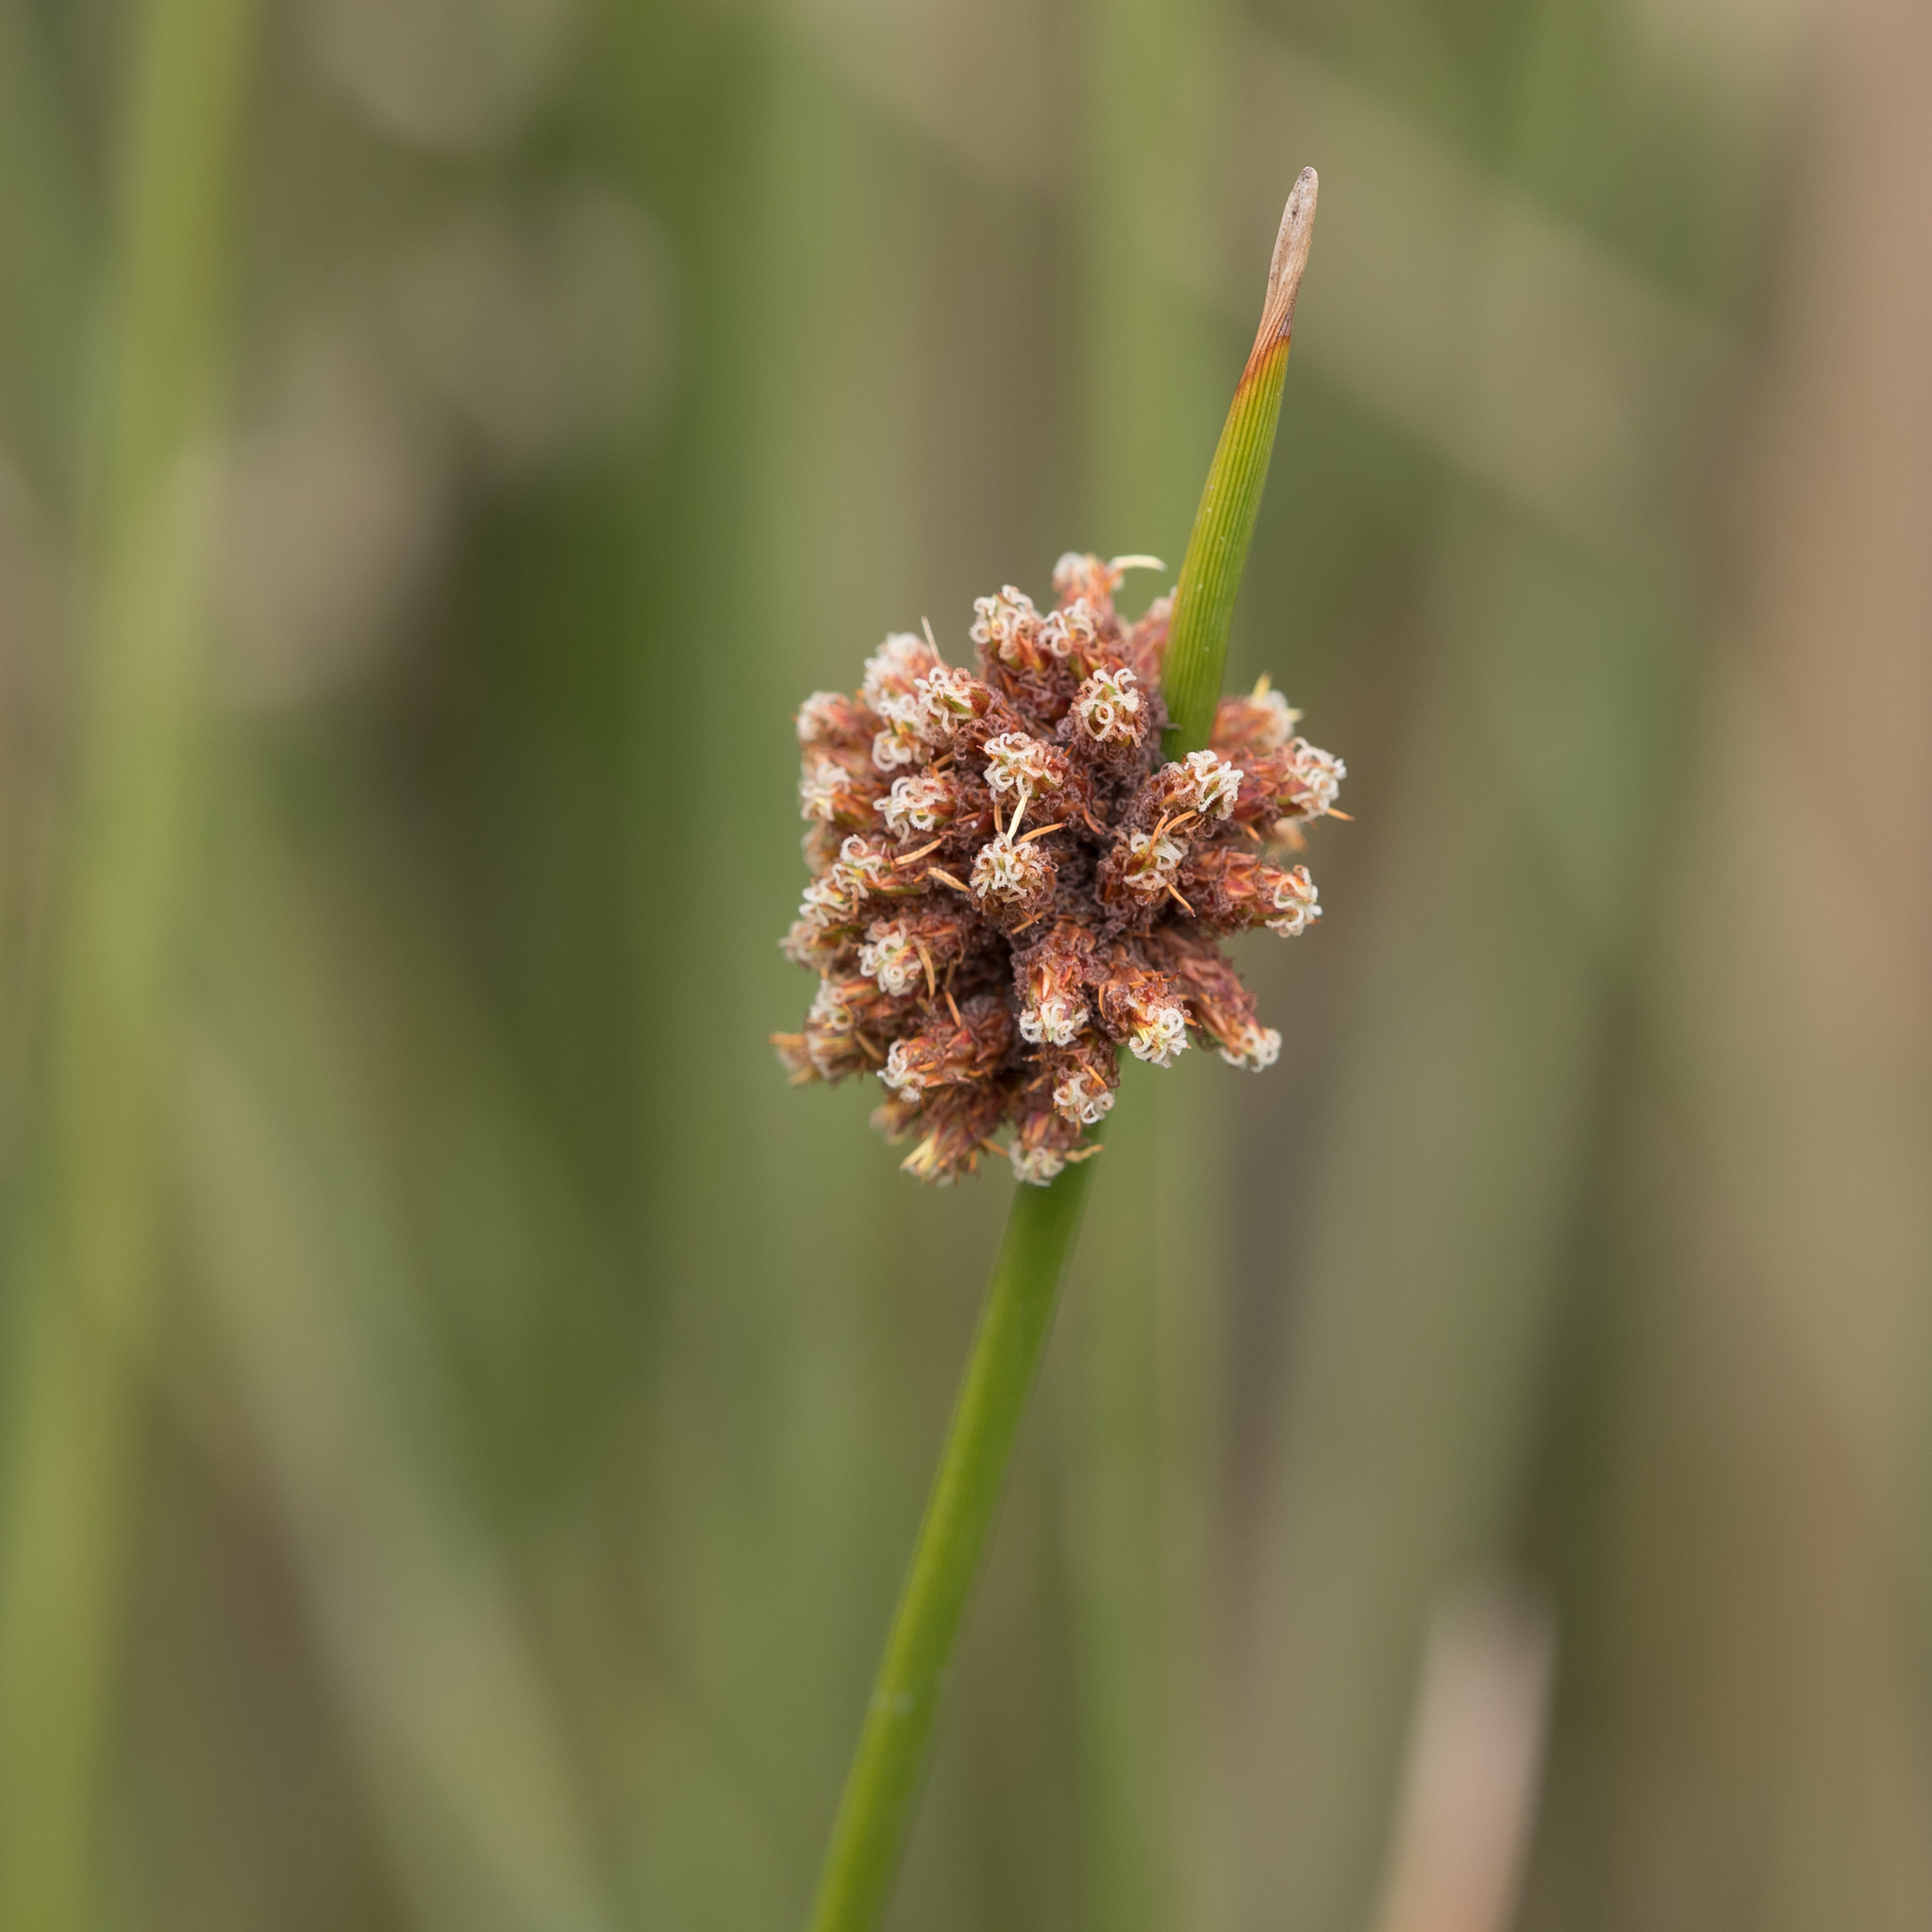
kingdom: Plantae
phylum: Tracheophyta
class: Liliopsida
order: Poales
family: Cyperaceae
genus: Ficinia
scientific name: Ficinia nodosa
